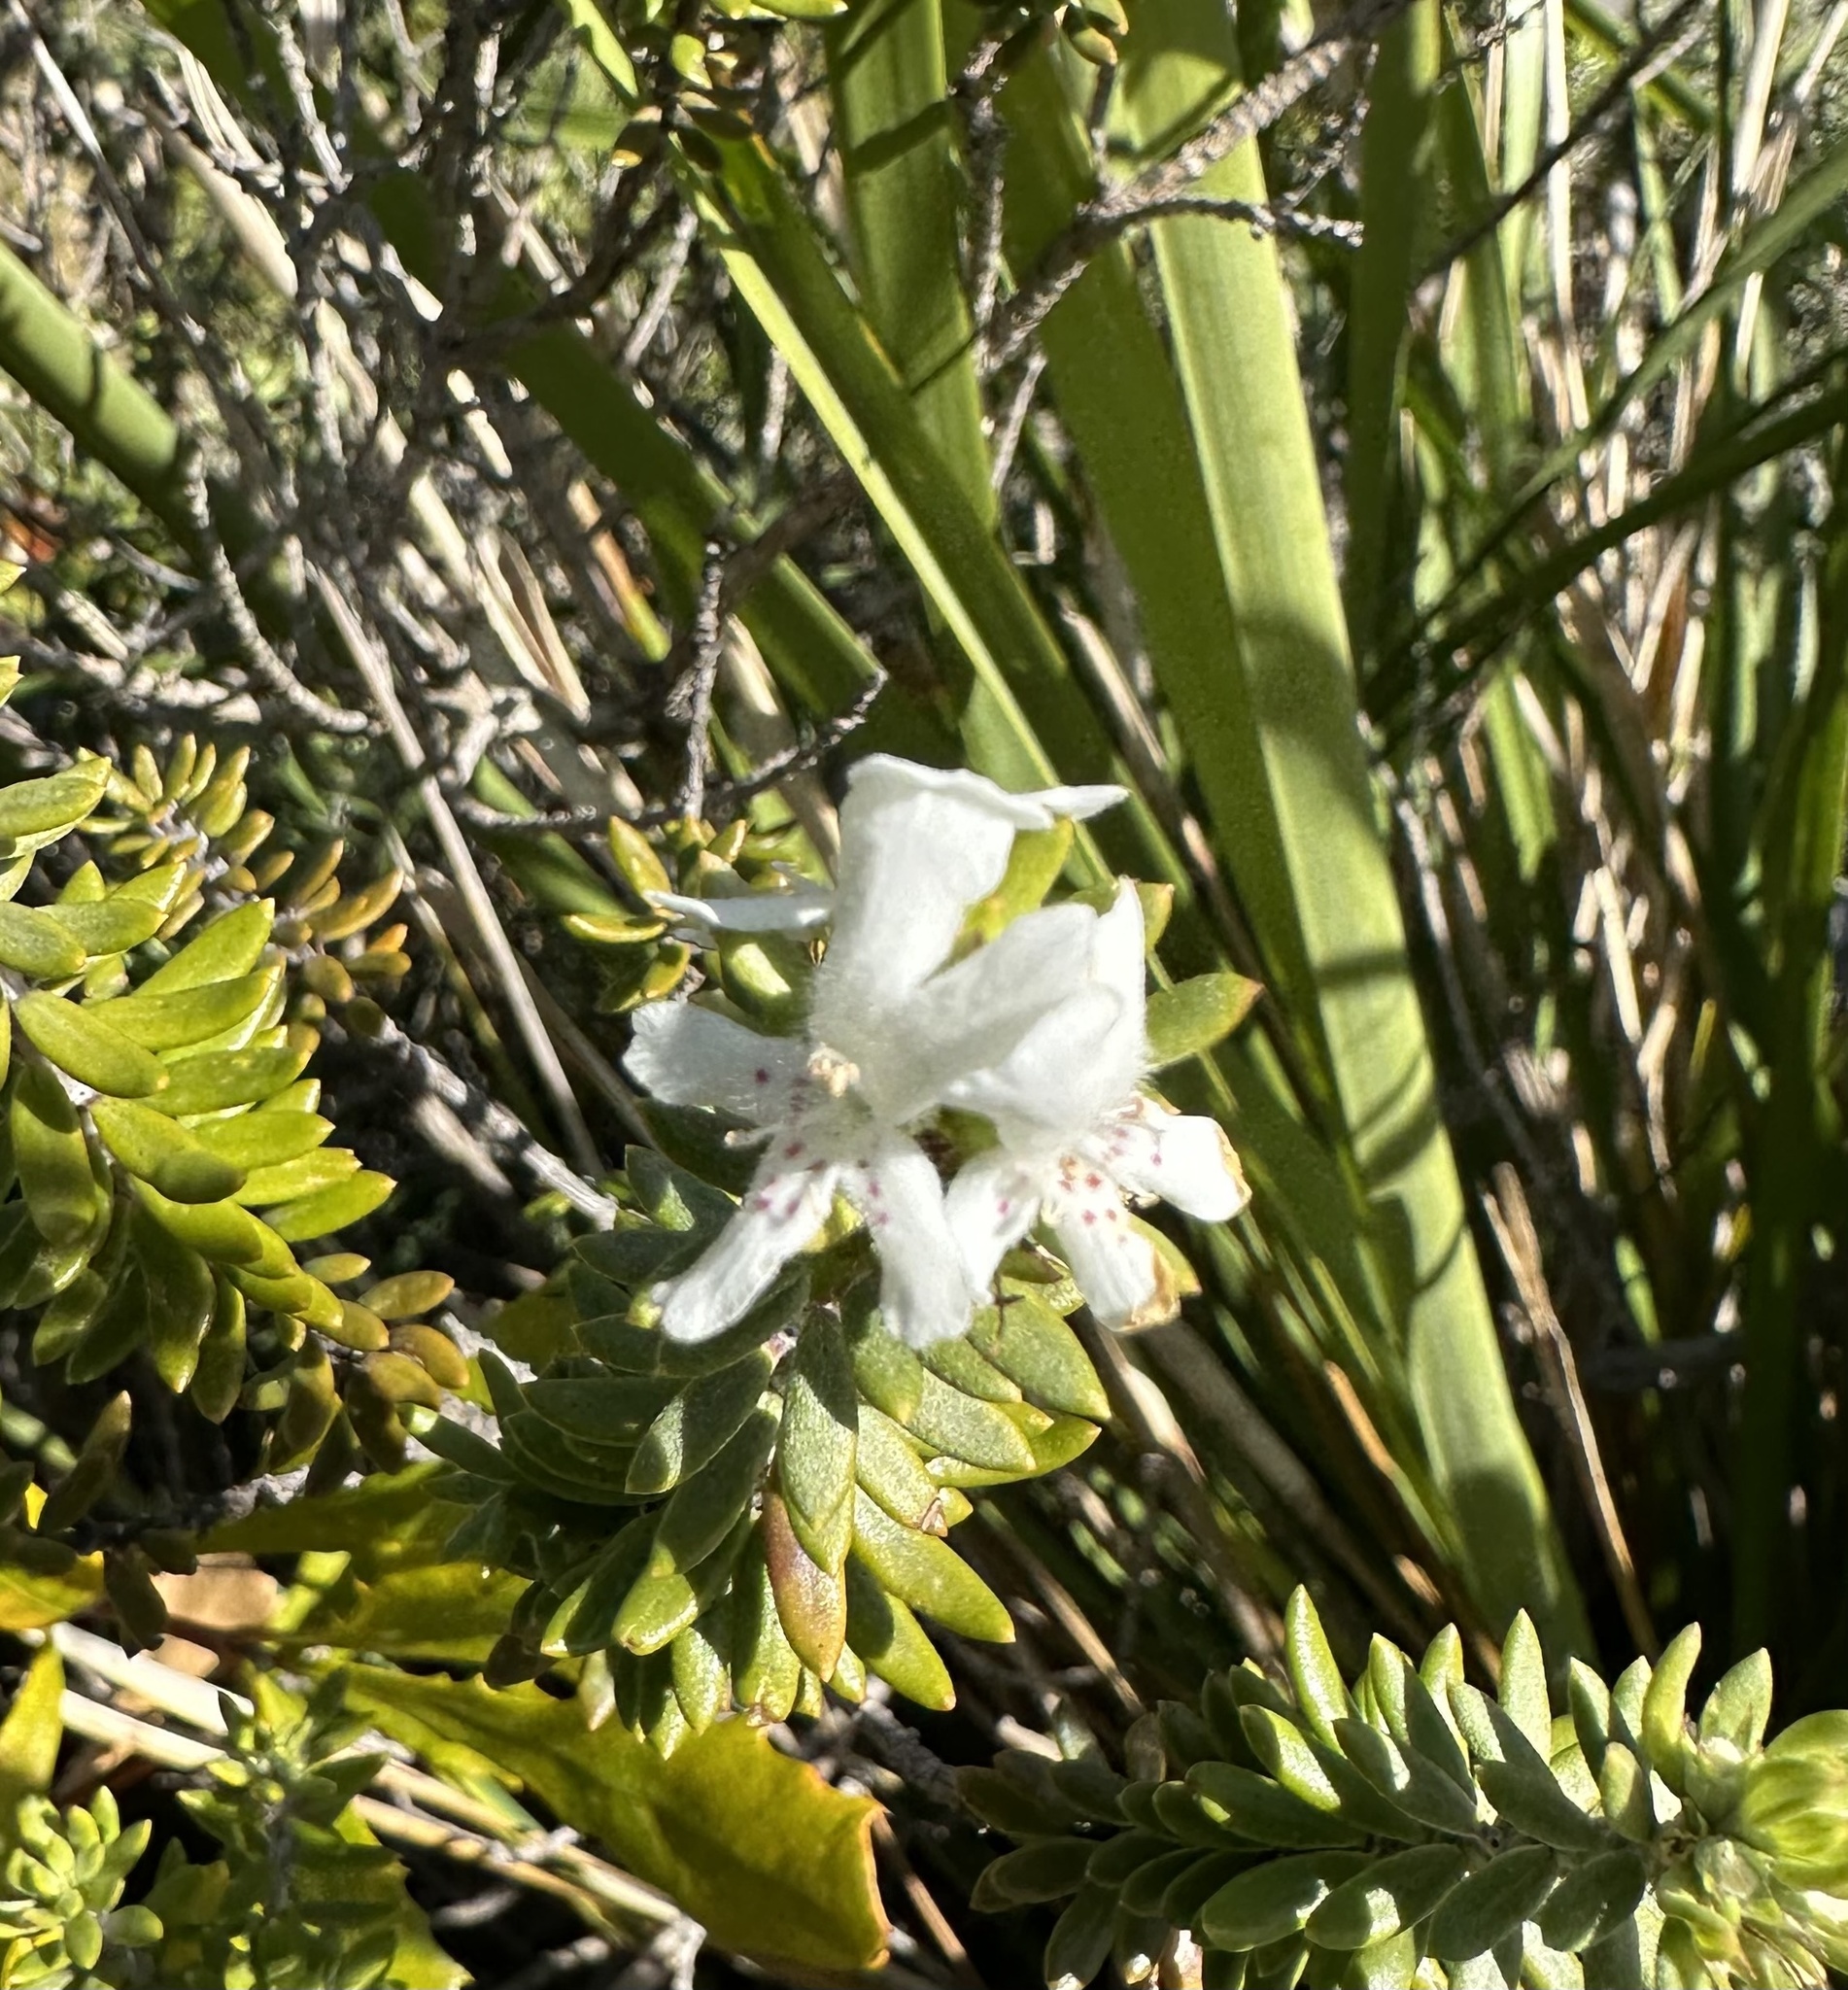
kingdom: Plantae
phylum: Tracheophyta
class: Magnoliopsida
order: Lamiales
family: Lamiaceae
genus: Westringia
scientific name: Westringia fruticosa
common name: Coastal-rosemary
